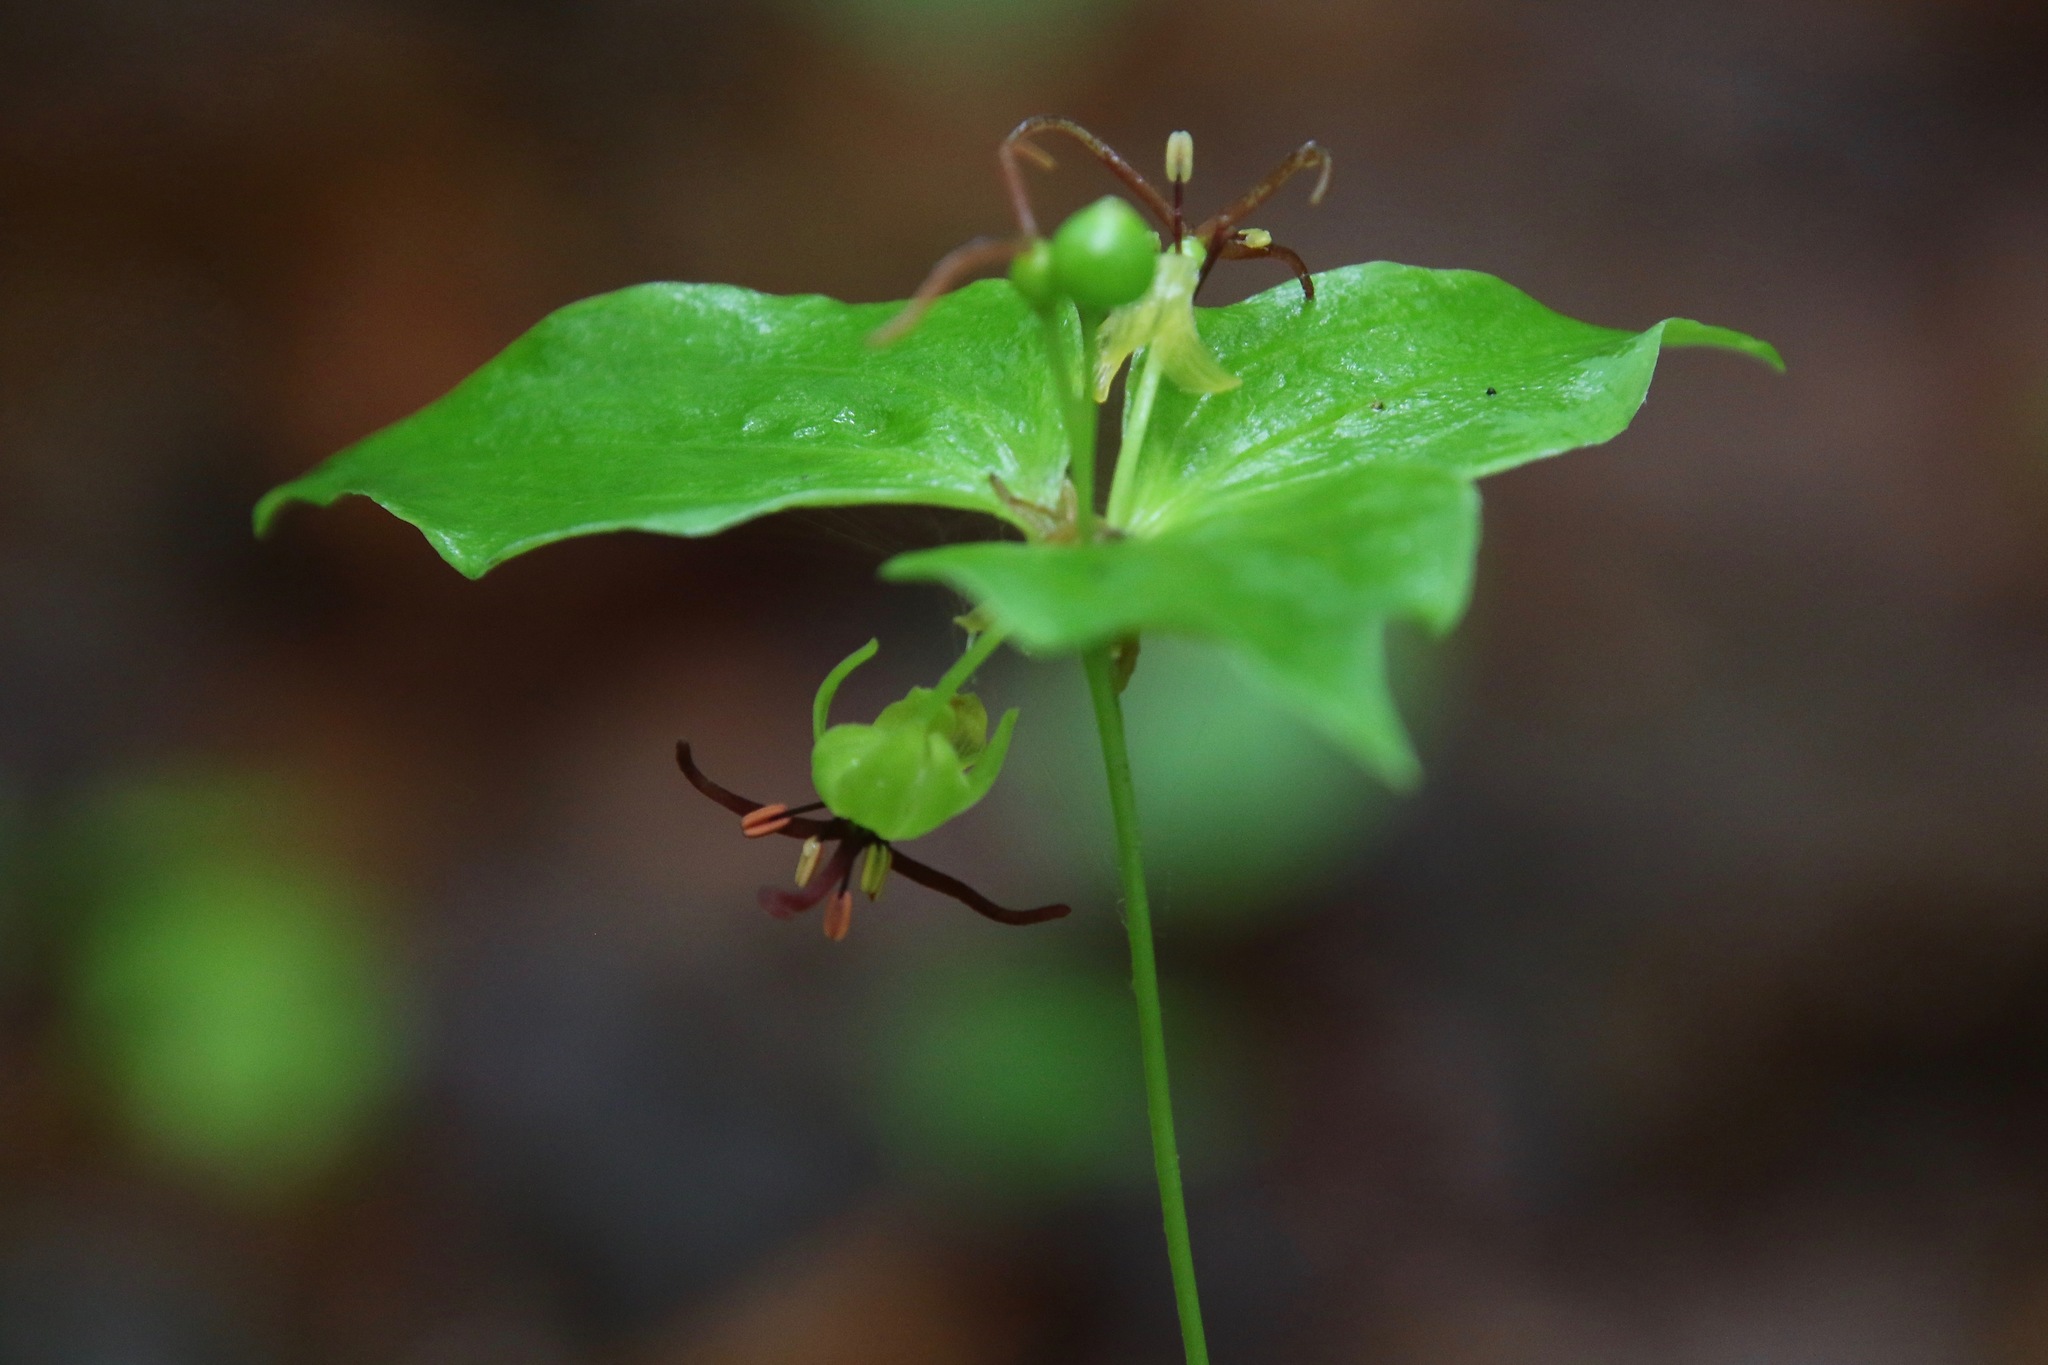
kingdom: Plantae
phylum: Tracheophyta
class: Liliopsida
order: Liliales
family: Liliaceae
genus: Medeola
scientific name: Medeola virginiana
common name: Indian cucumber-root
